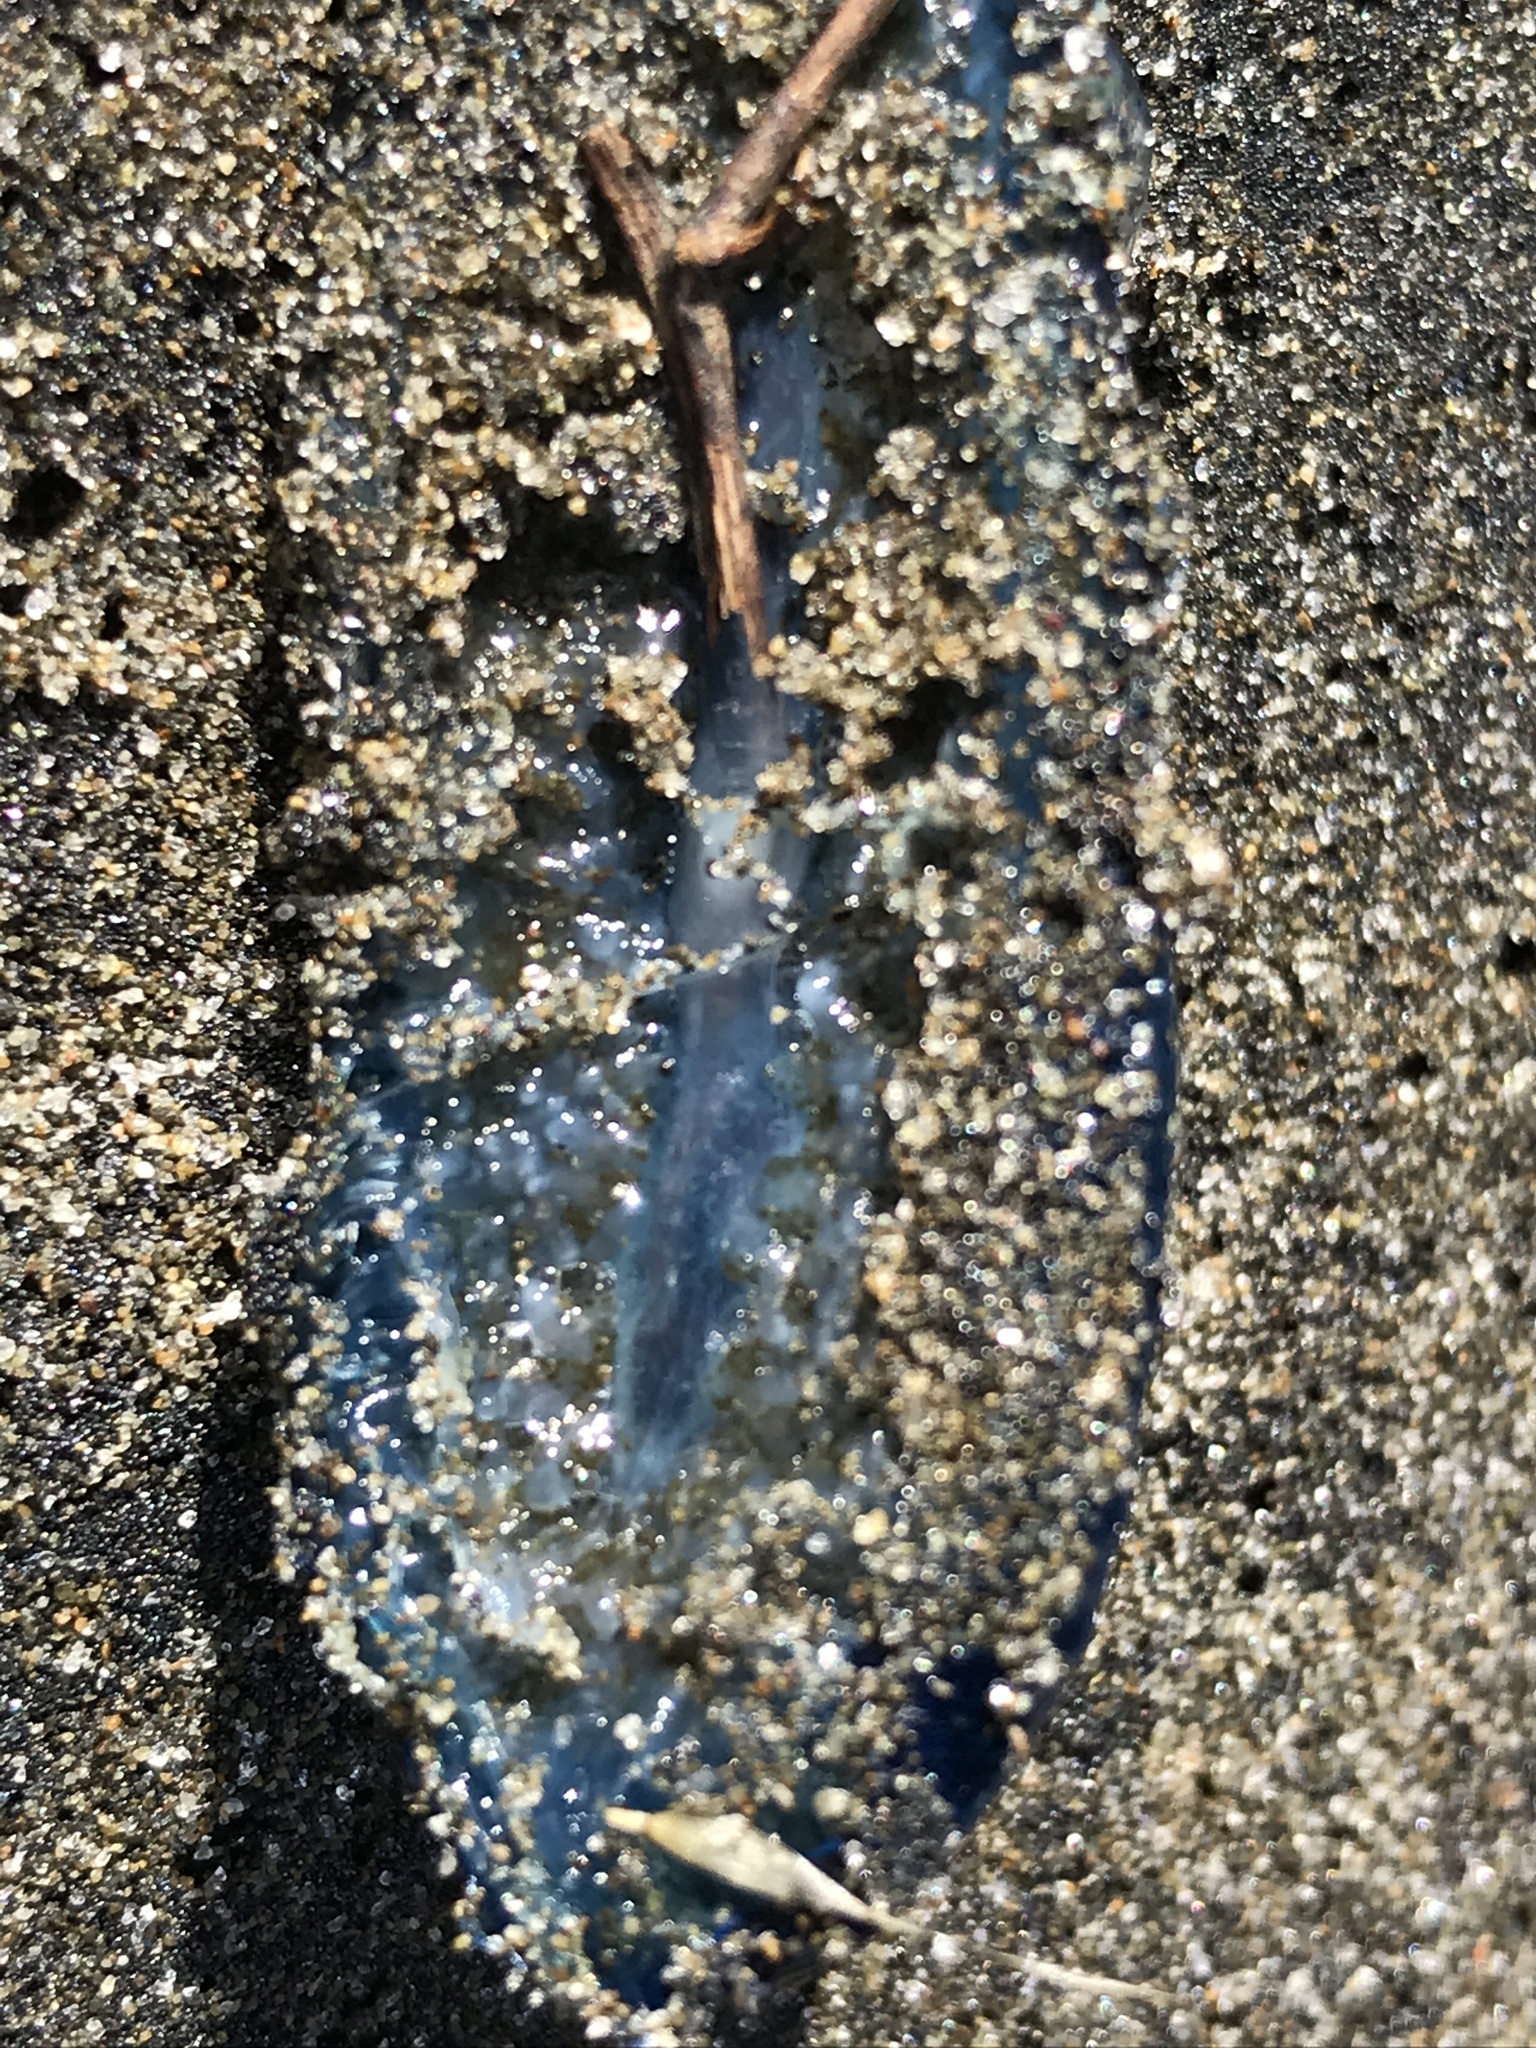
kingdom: Animalia
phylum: Cnidaria
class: Hydrozoa
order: Anthoathecata
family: Porpitidae
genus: Velella
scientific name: Velella velella
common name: By-the-wind-sailor
